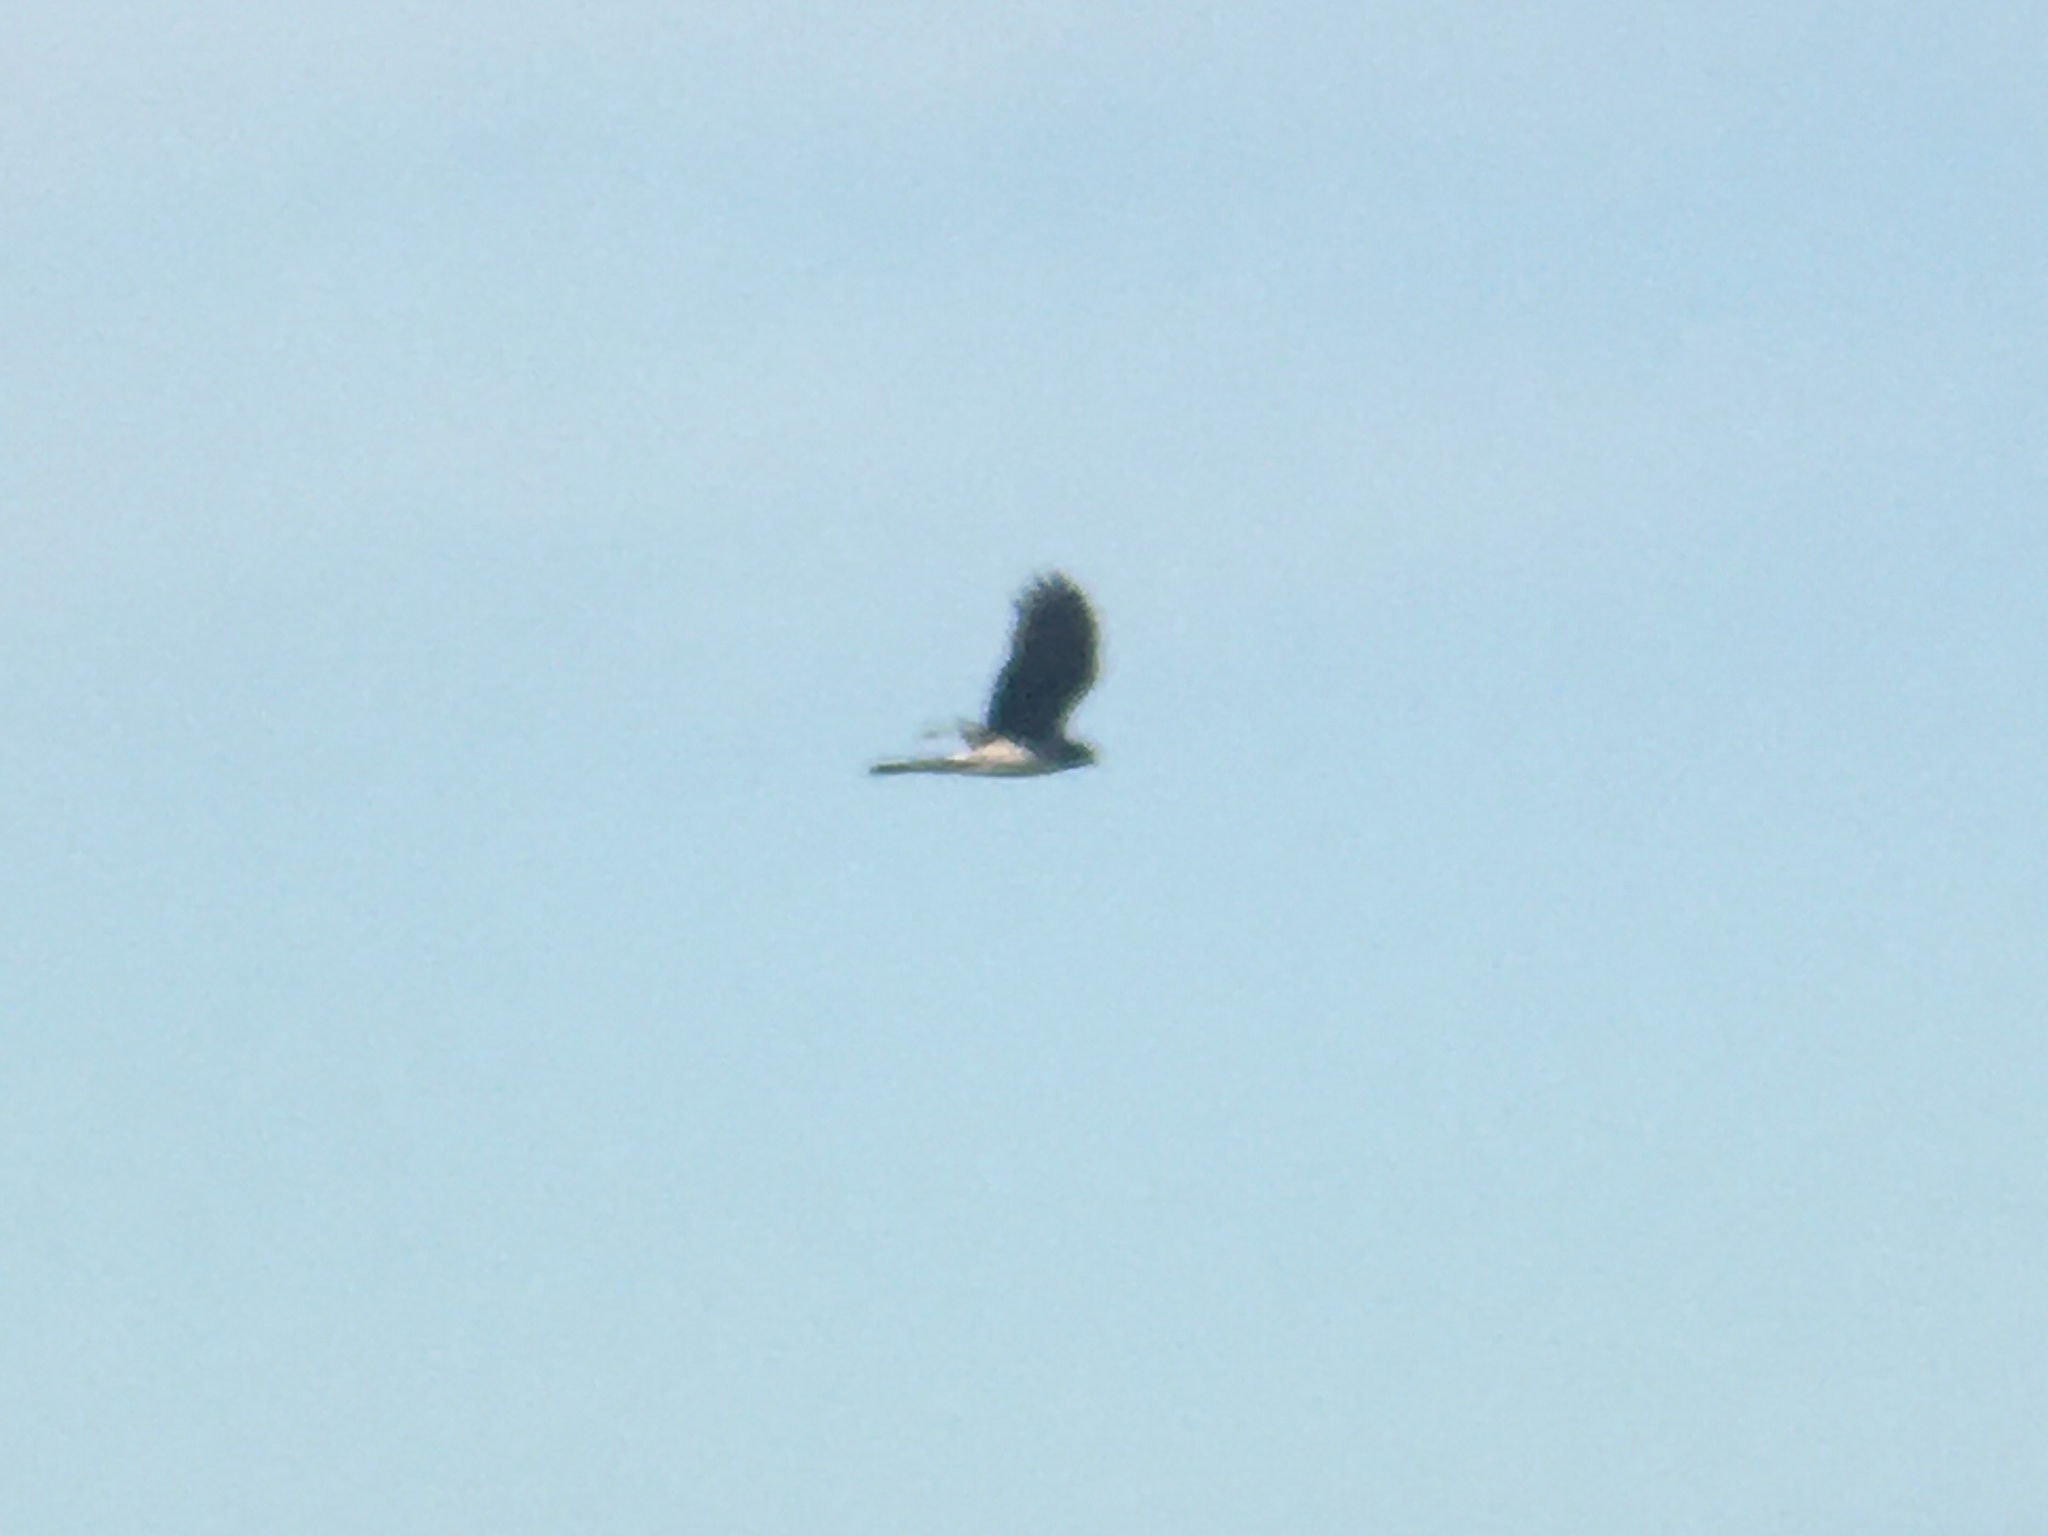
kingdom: Animalia
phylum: Chordata
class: Aves
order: Accipitriformes
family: Accipitridae
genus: Circus
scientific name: Circus buffoni
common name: Long-winged harrier
